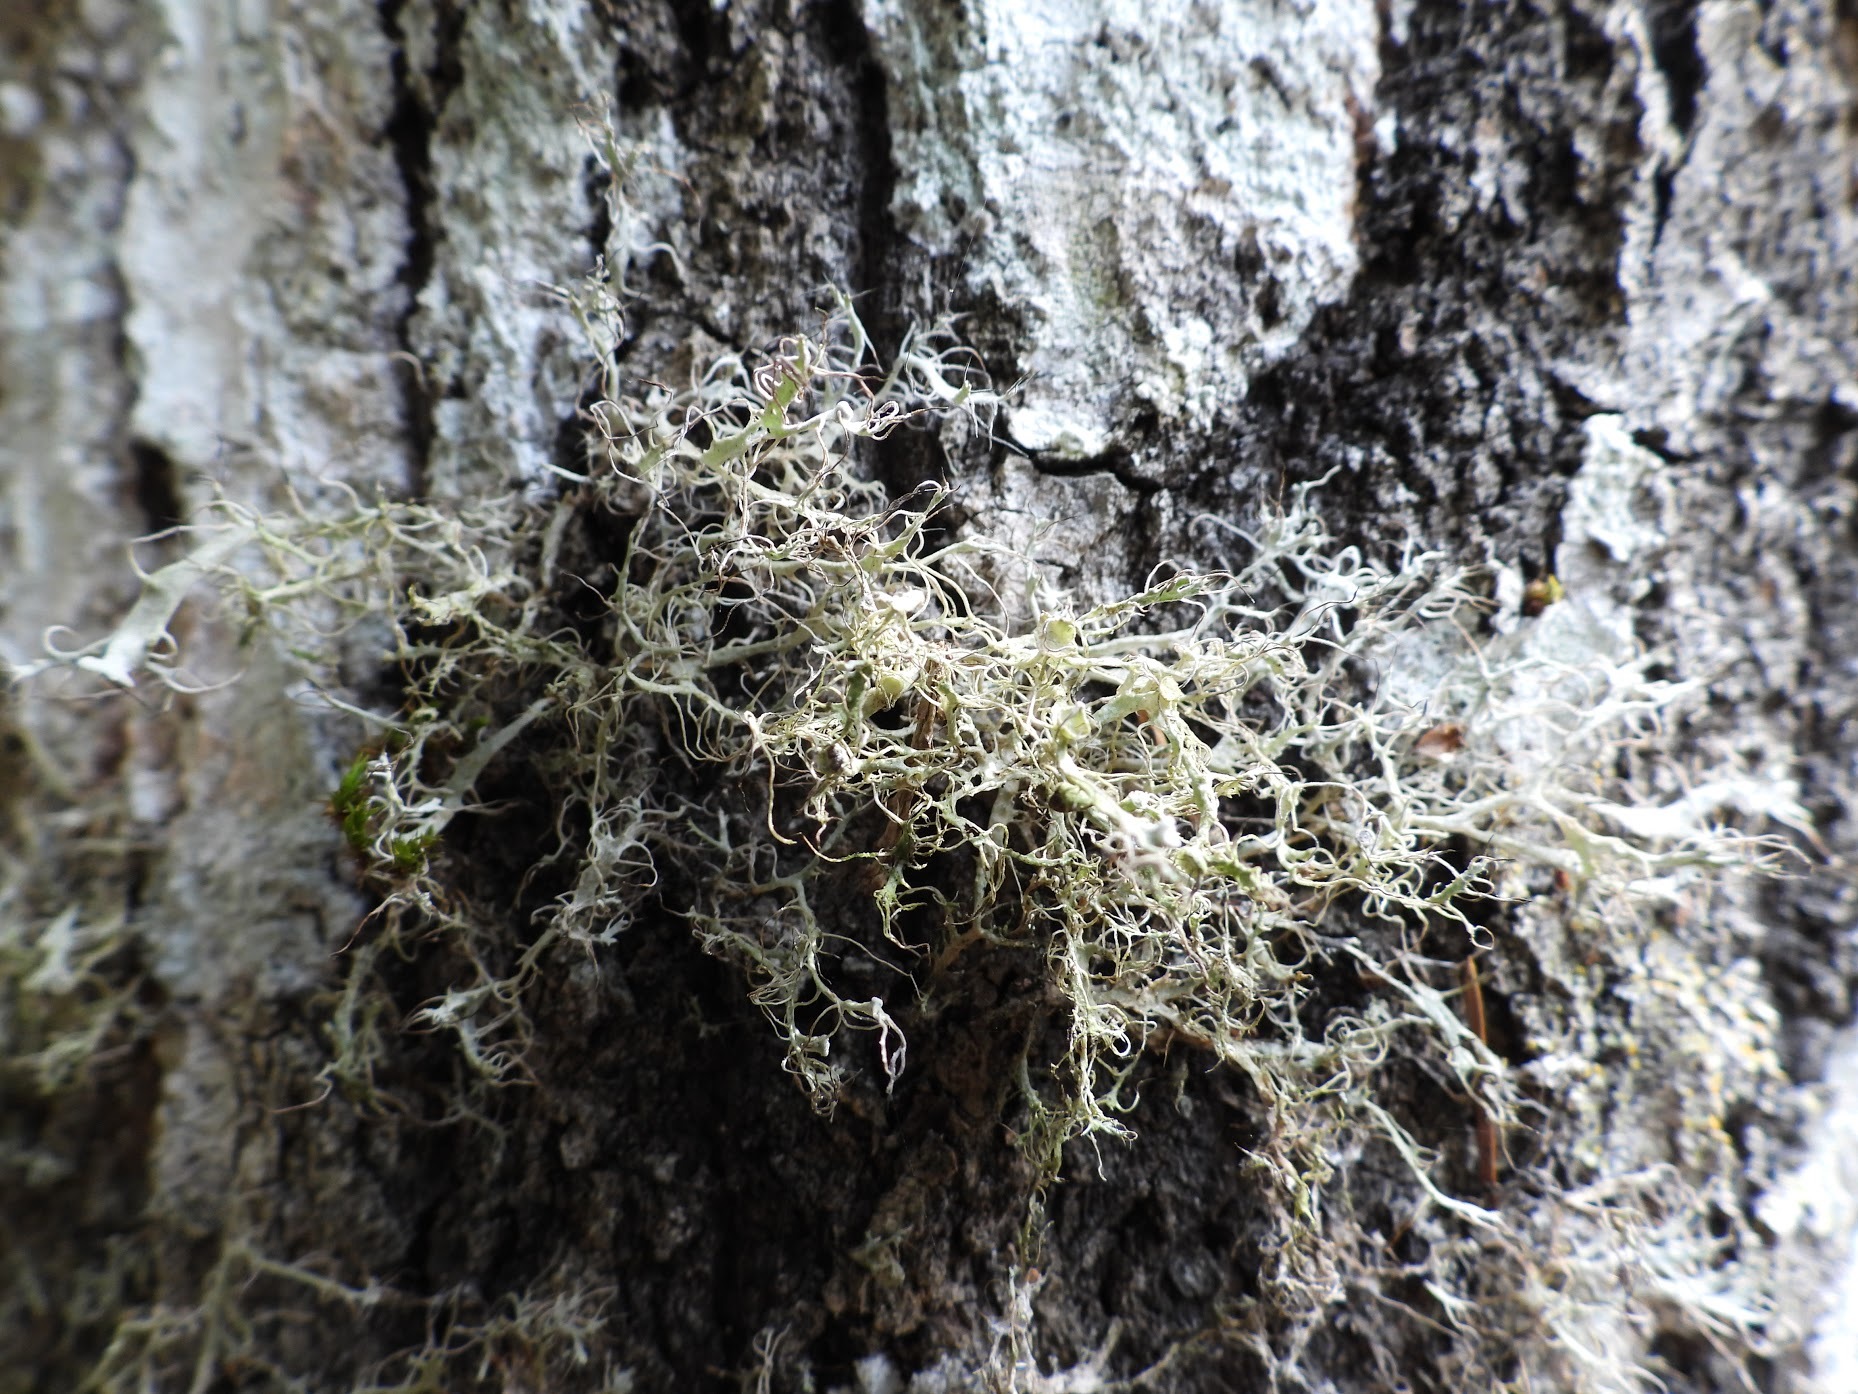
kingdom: Fungi
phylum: Ascomycota
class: Lecanoromycetes
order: Caliciales
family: Physciaceae
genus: Anaptychia
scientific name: Anaptychia ciliaris
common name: Great ciliated lichen
